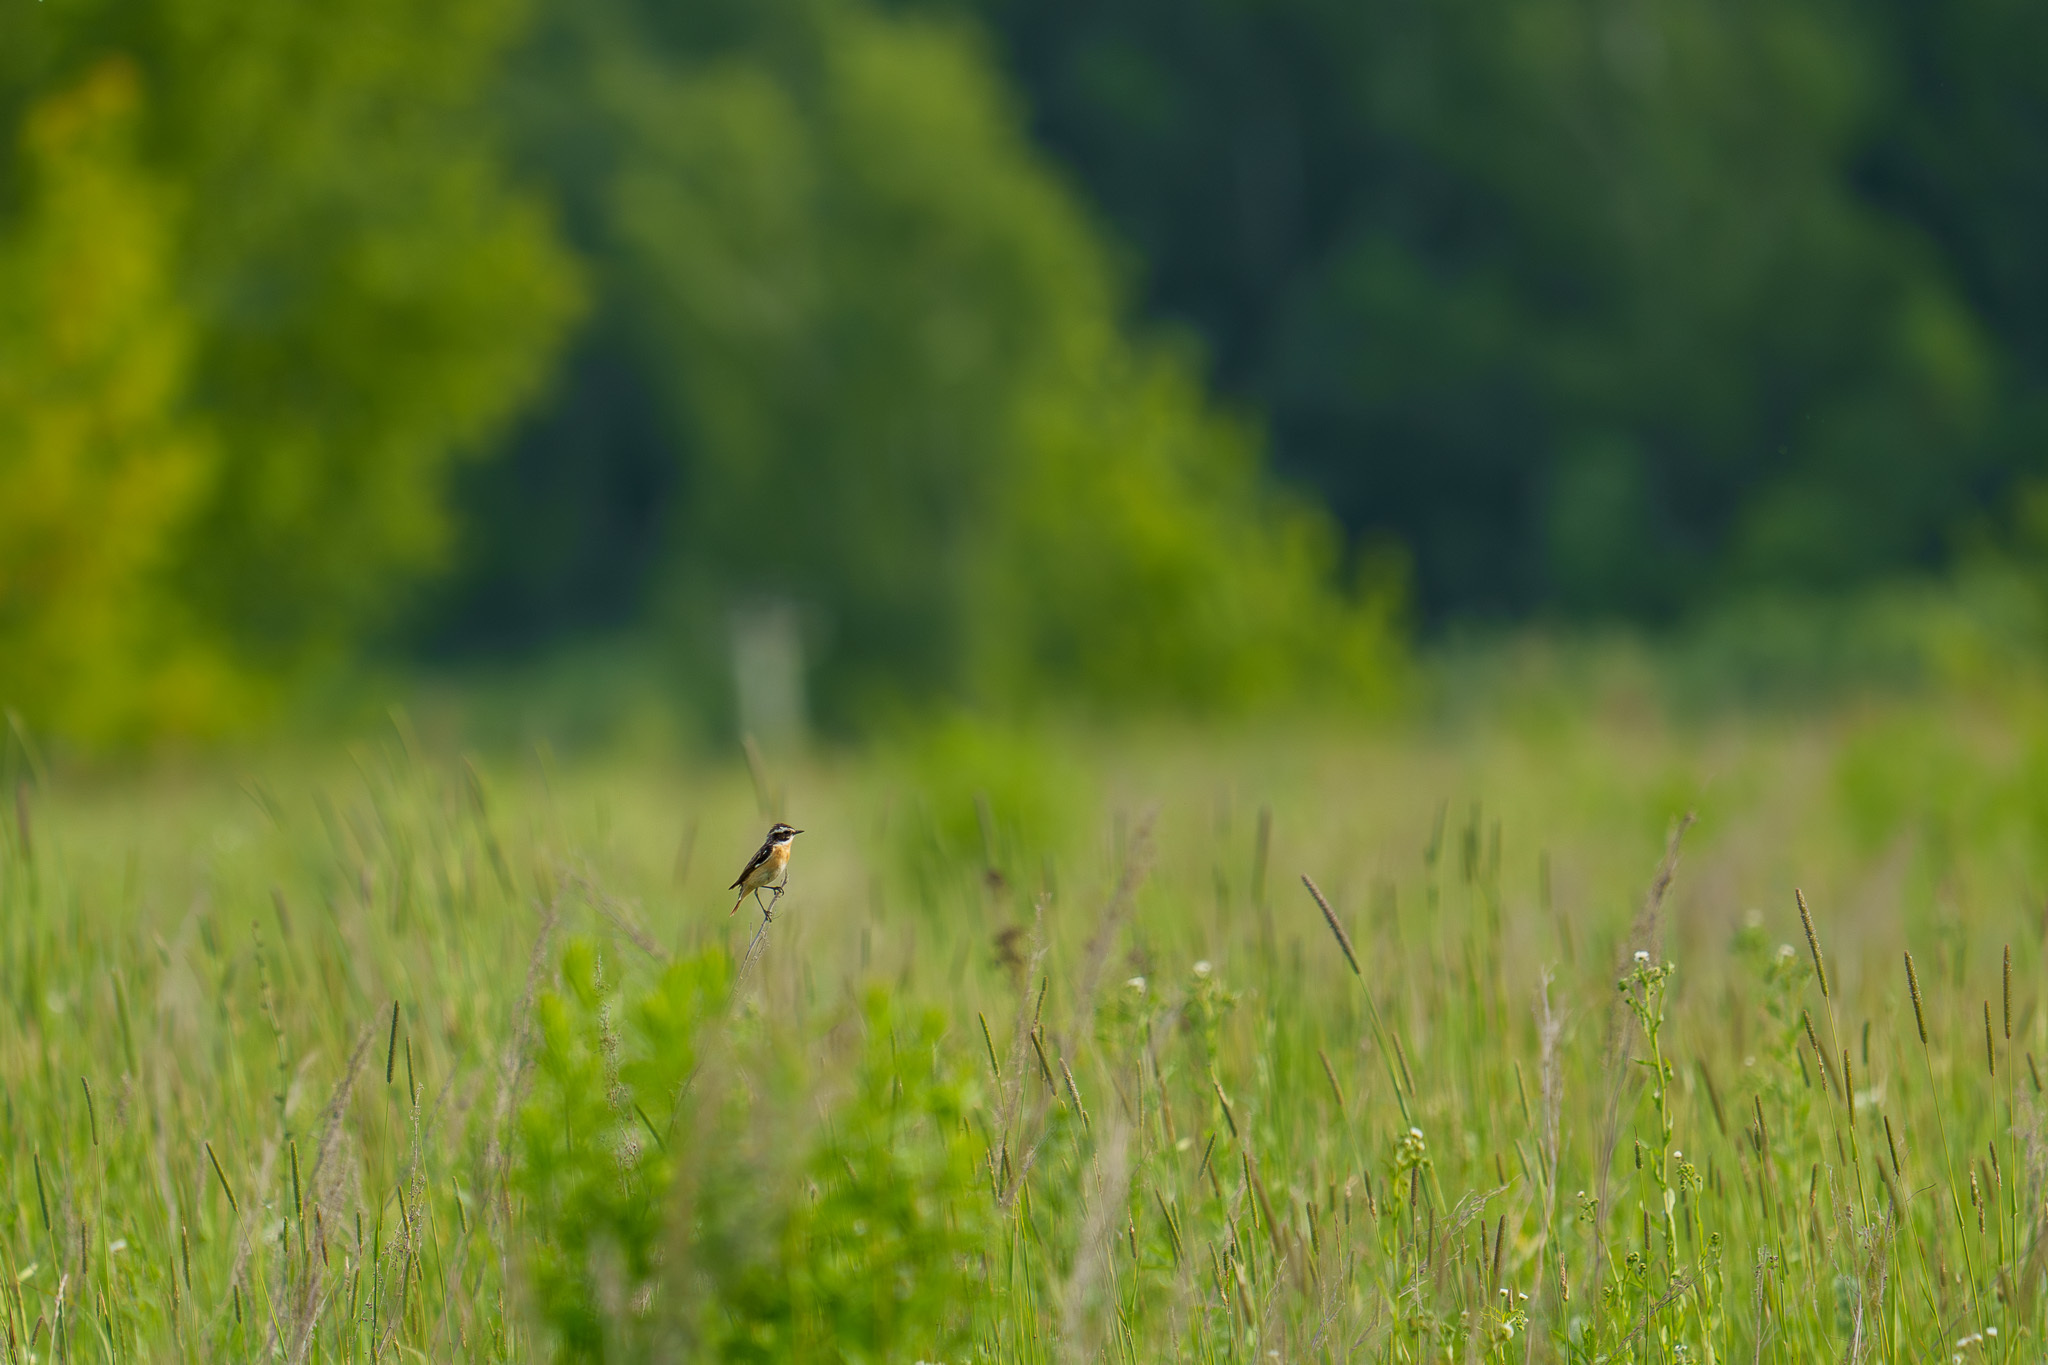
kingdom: Animalia
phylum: Chordata
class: Aves
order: Passeriformes
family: Muscicapidae
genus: Saxicola
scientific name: Saxicola rubetra
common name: Whinchat
